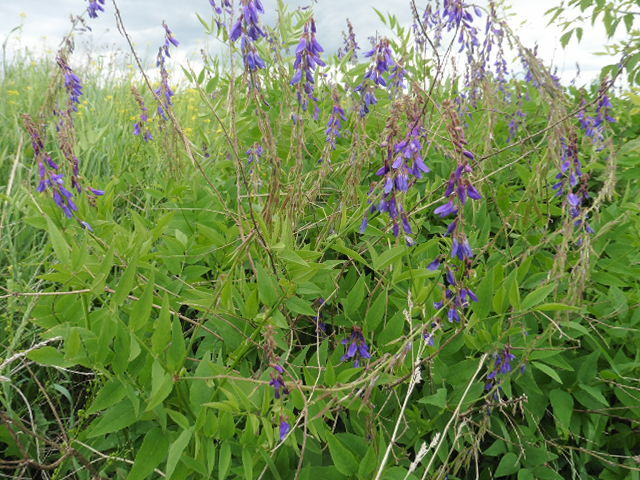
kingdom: Plantae
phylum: Tracheophyta
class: Magnoliopsida
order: Fabales
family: Fabaceae
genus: Galega
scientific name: Galega orientalis
